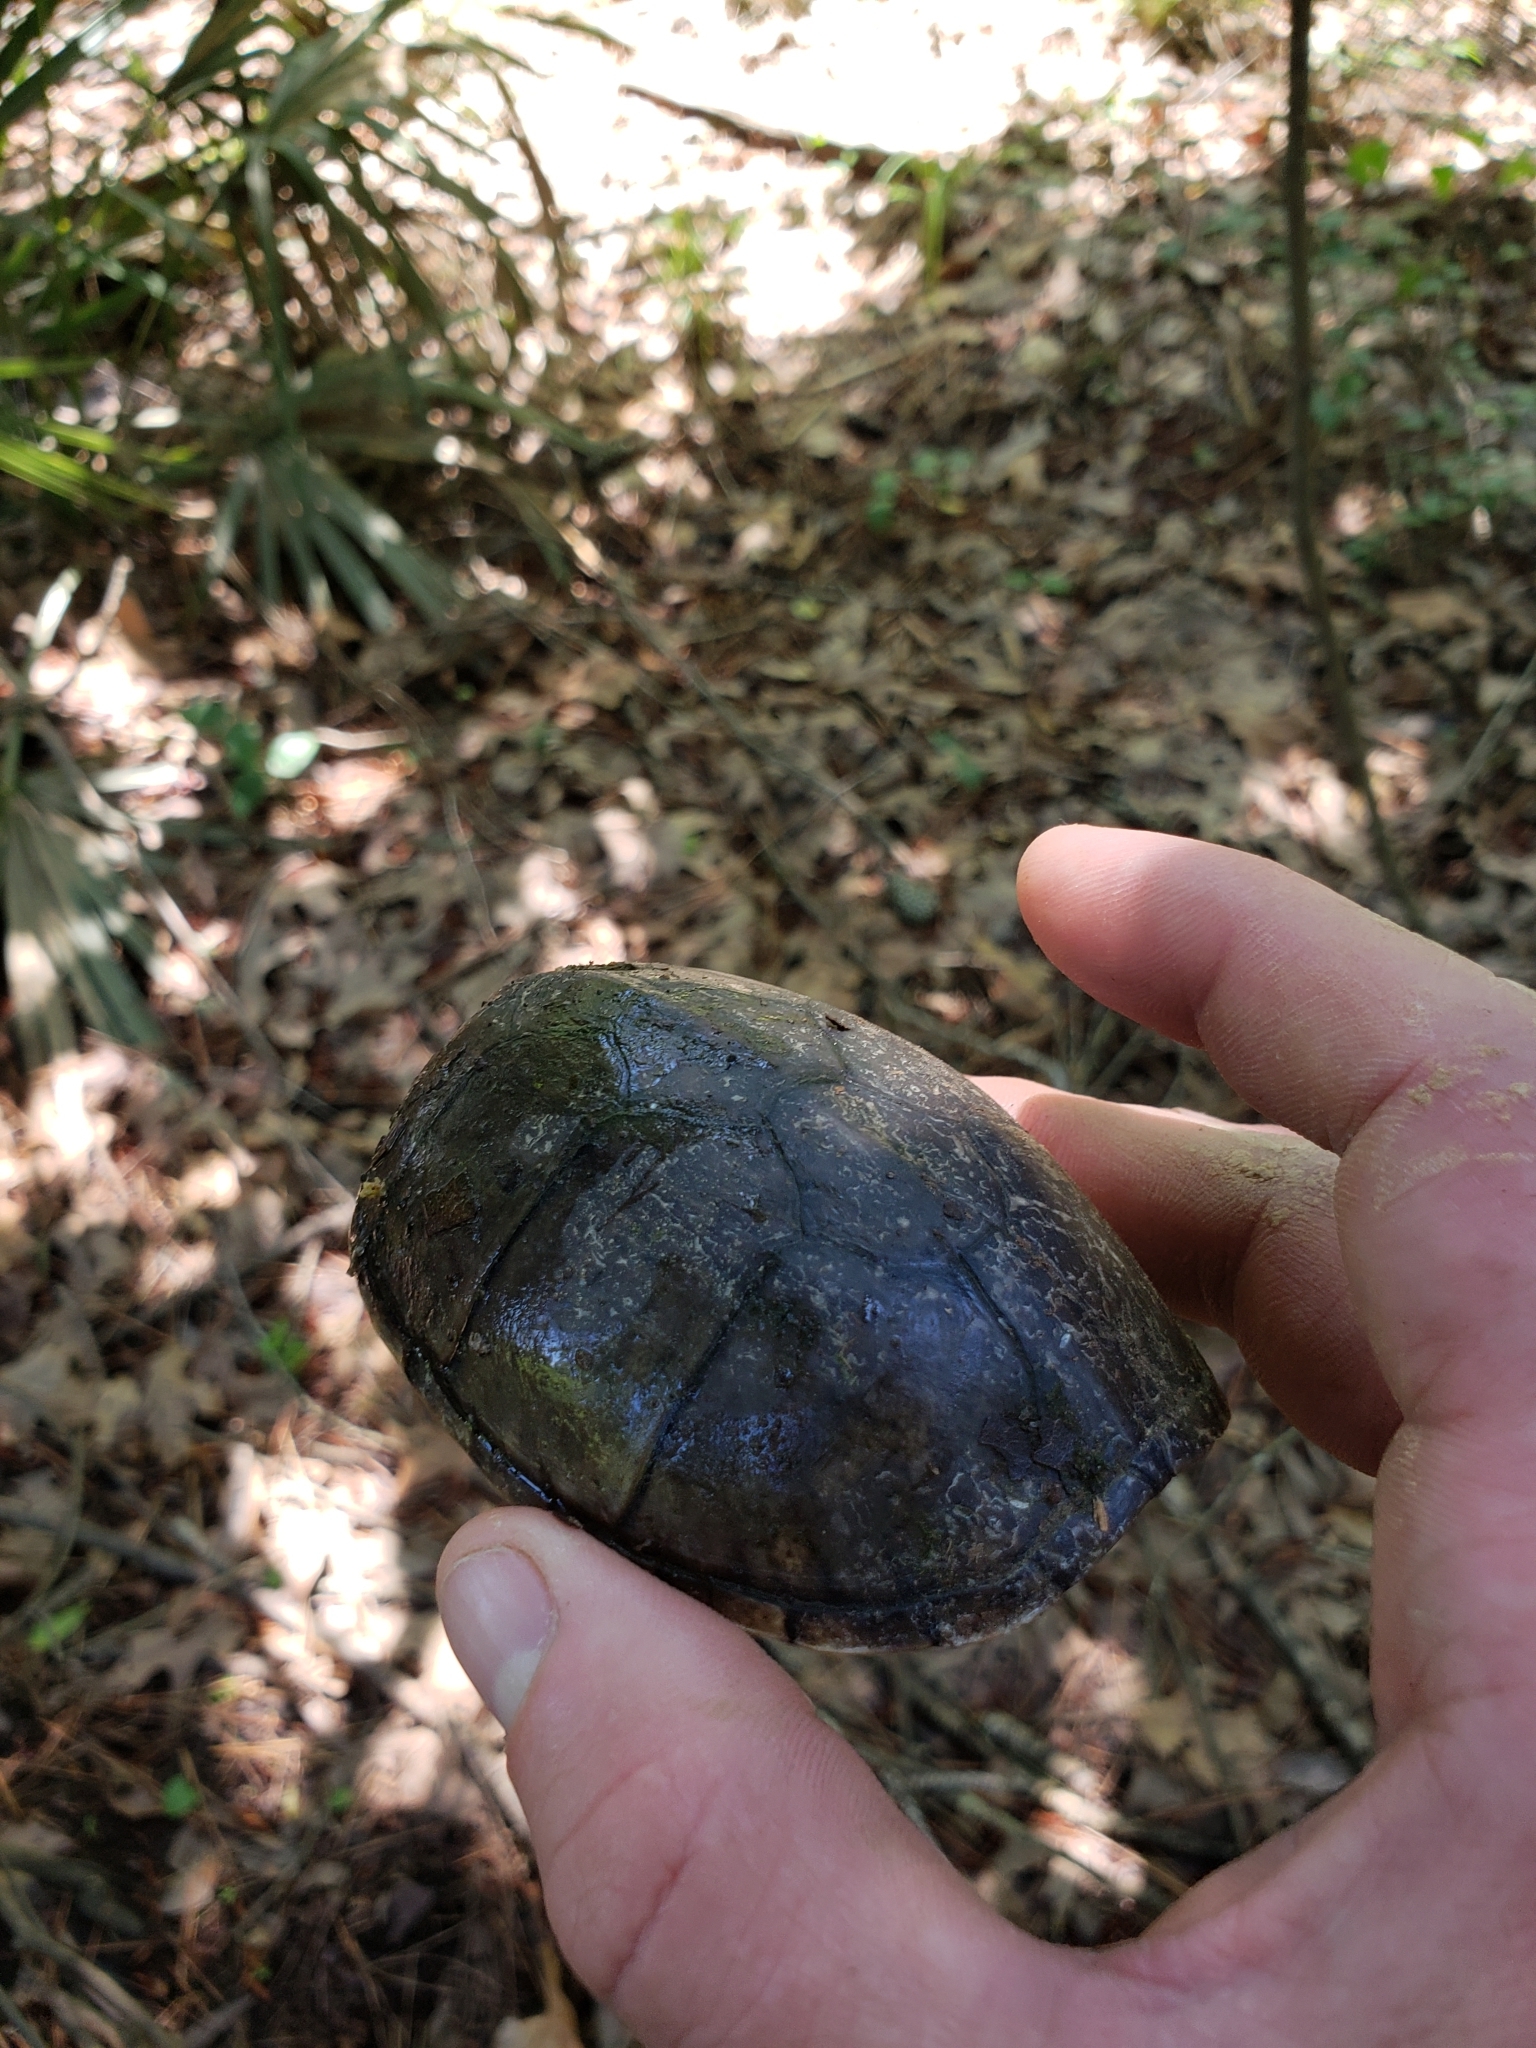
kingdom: Animalia
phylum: Chordata
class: Testudines
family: Kinosternidae
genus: Sternotherus
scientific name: Sternotherus odoratus
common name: Common musk turtle
